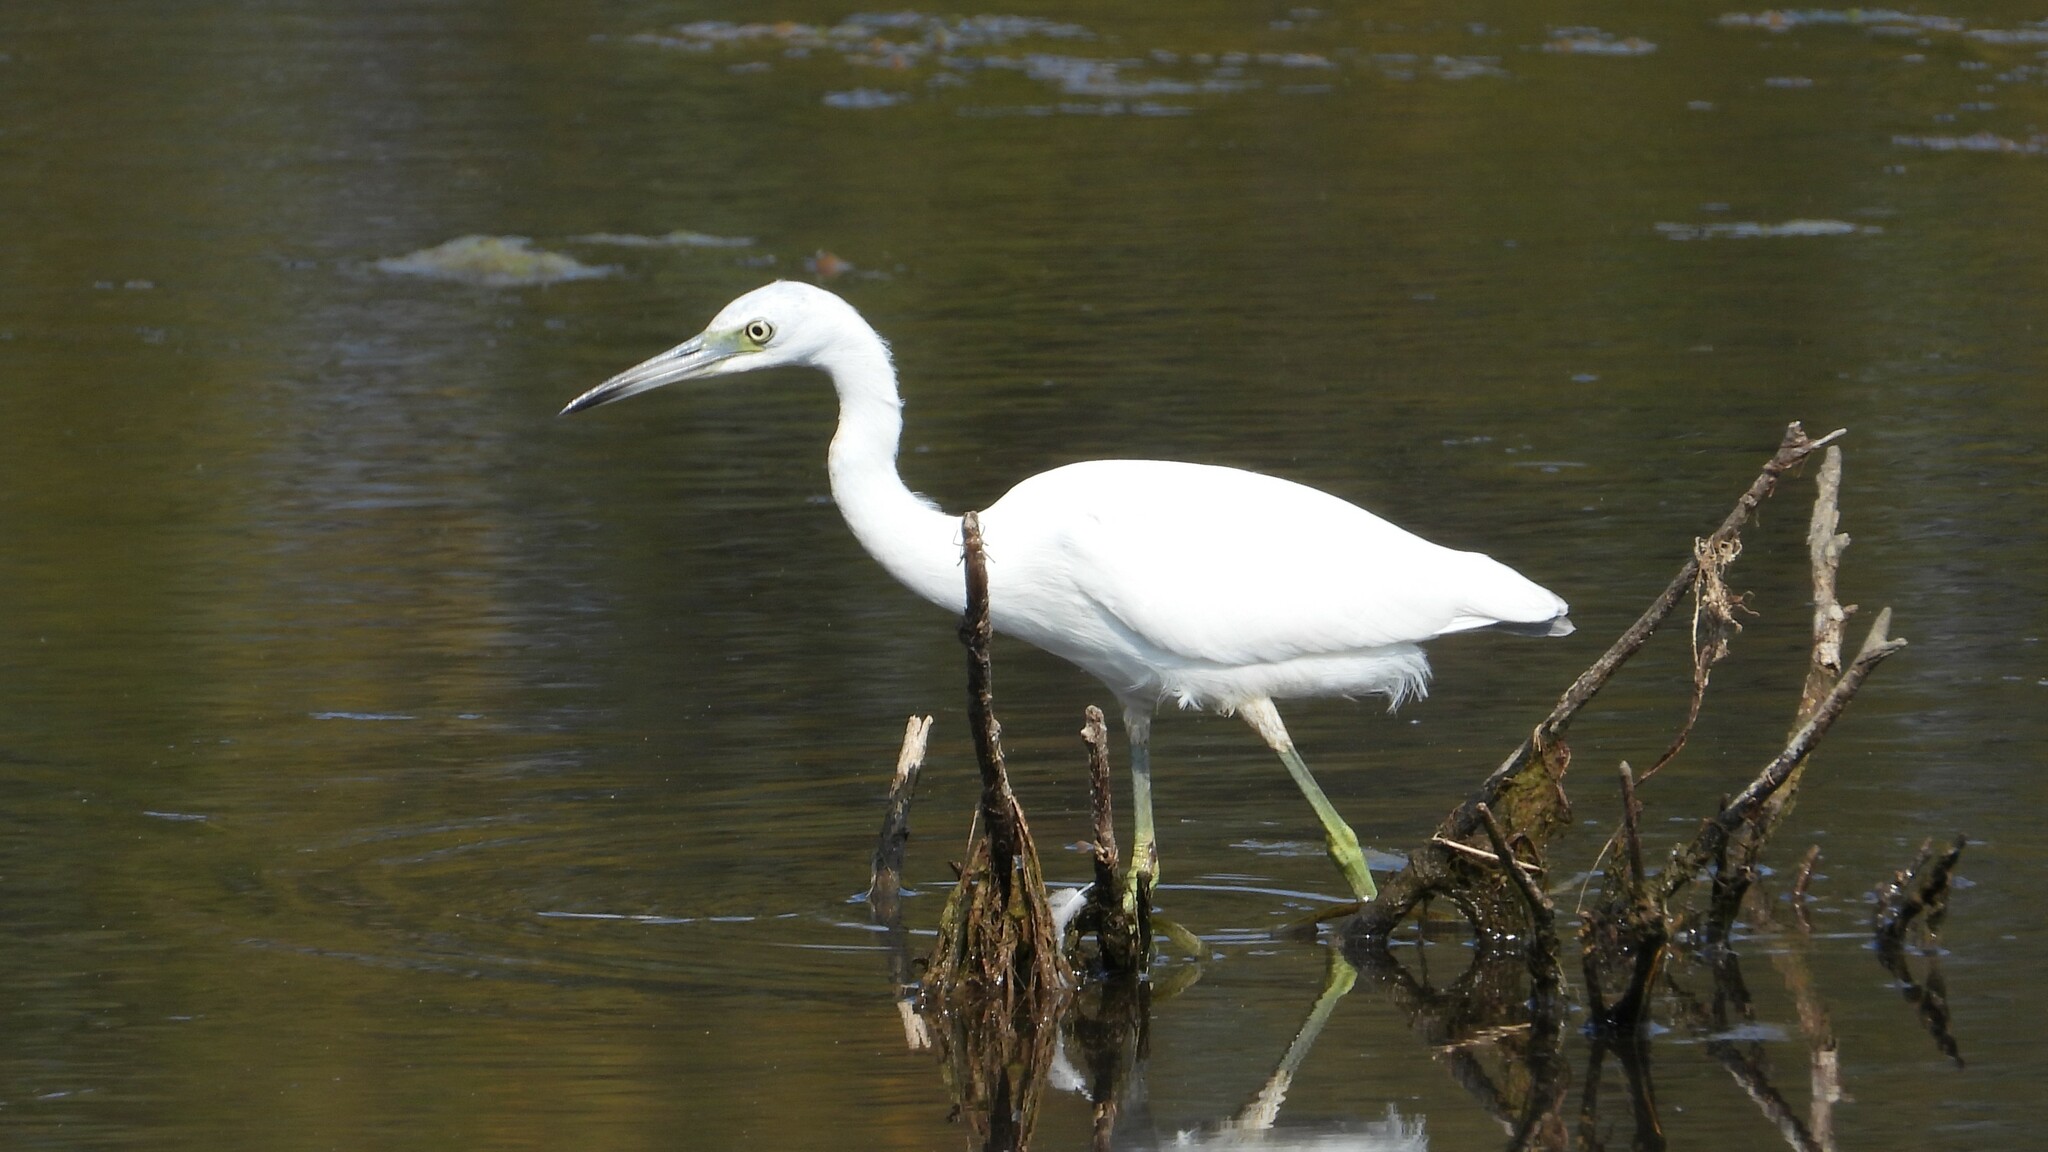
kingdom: Animalia
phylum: Chordata
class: Aves
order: Pelecaniformes
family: Ardeidae
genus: Egretta
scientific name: Egretta caerulea
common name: Little blue heron
